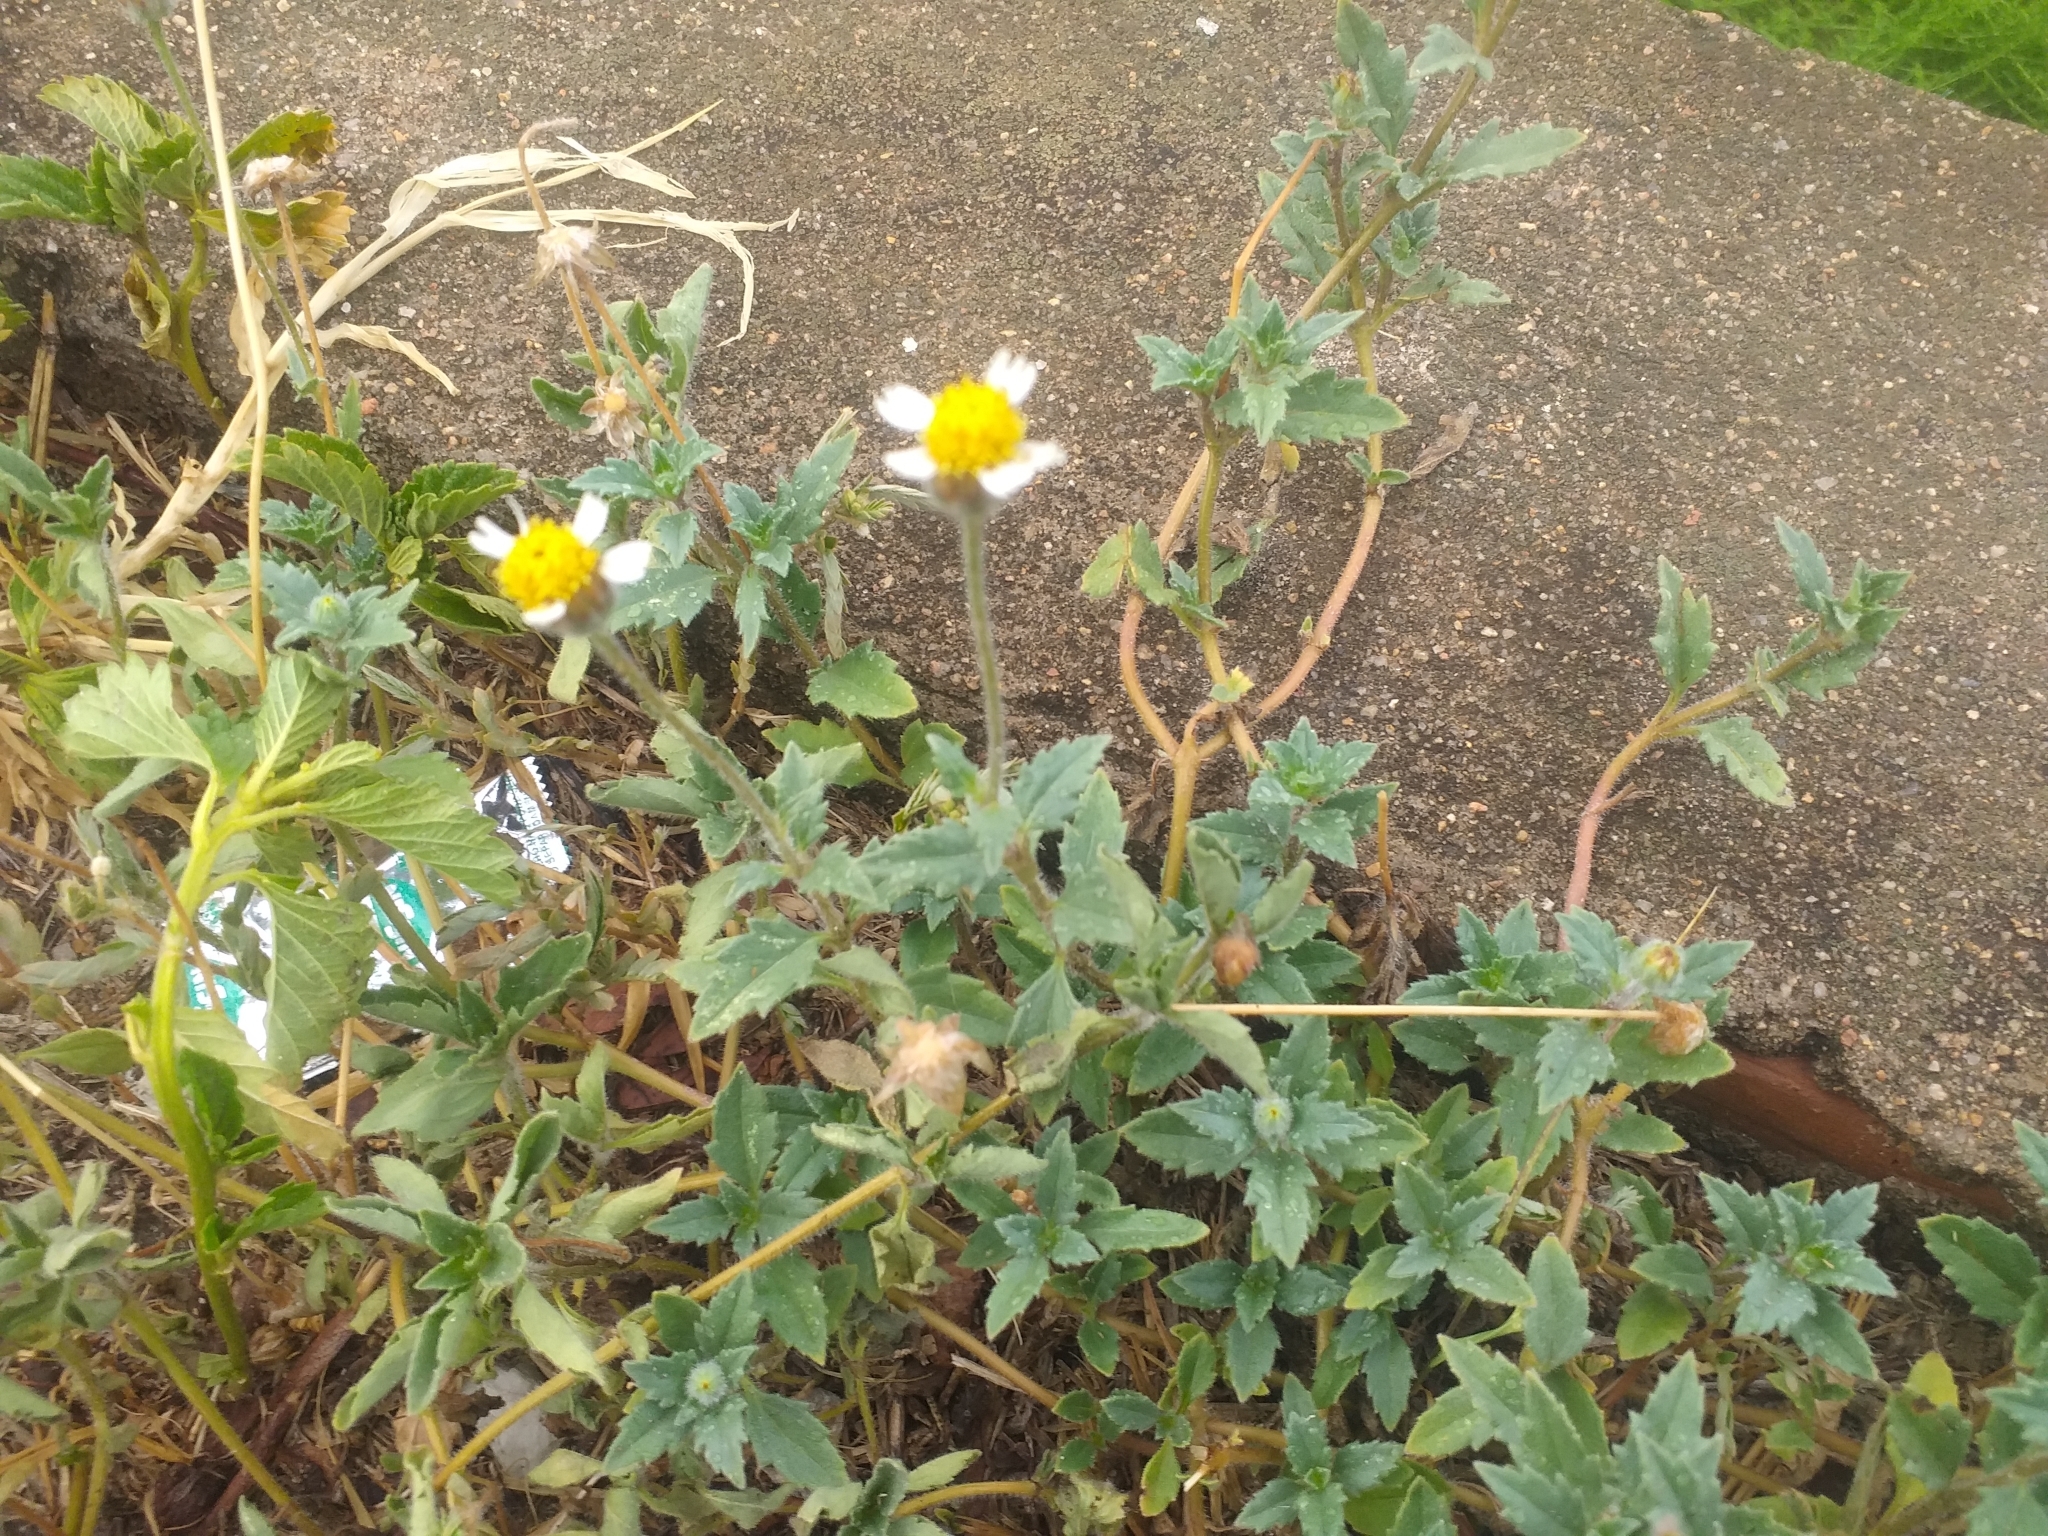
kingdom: Plantae
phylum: Tracheophyta
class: Magnoliopsida
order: Asterales
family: Asteraceae
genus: Tridax
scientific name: Tridax procumbens
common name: Coatbuttons
